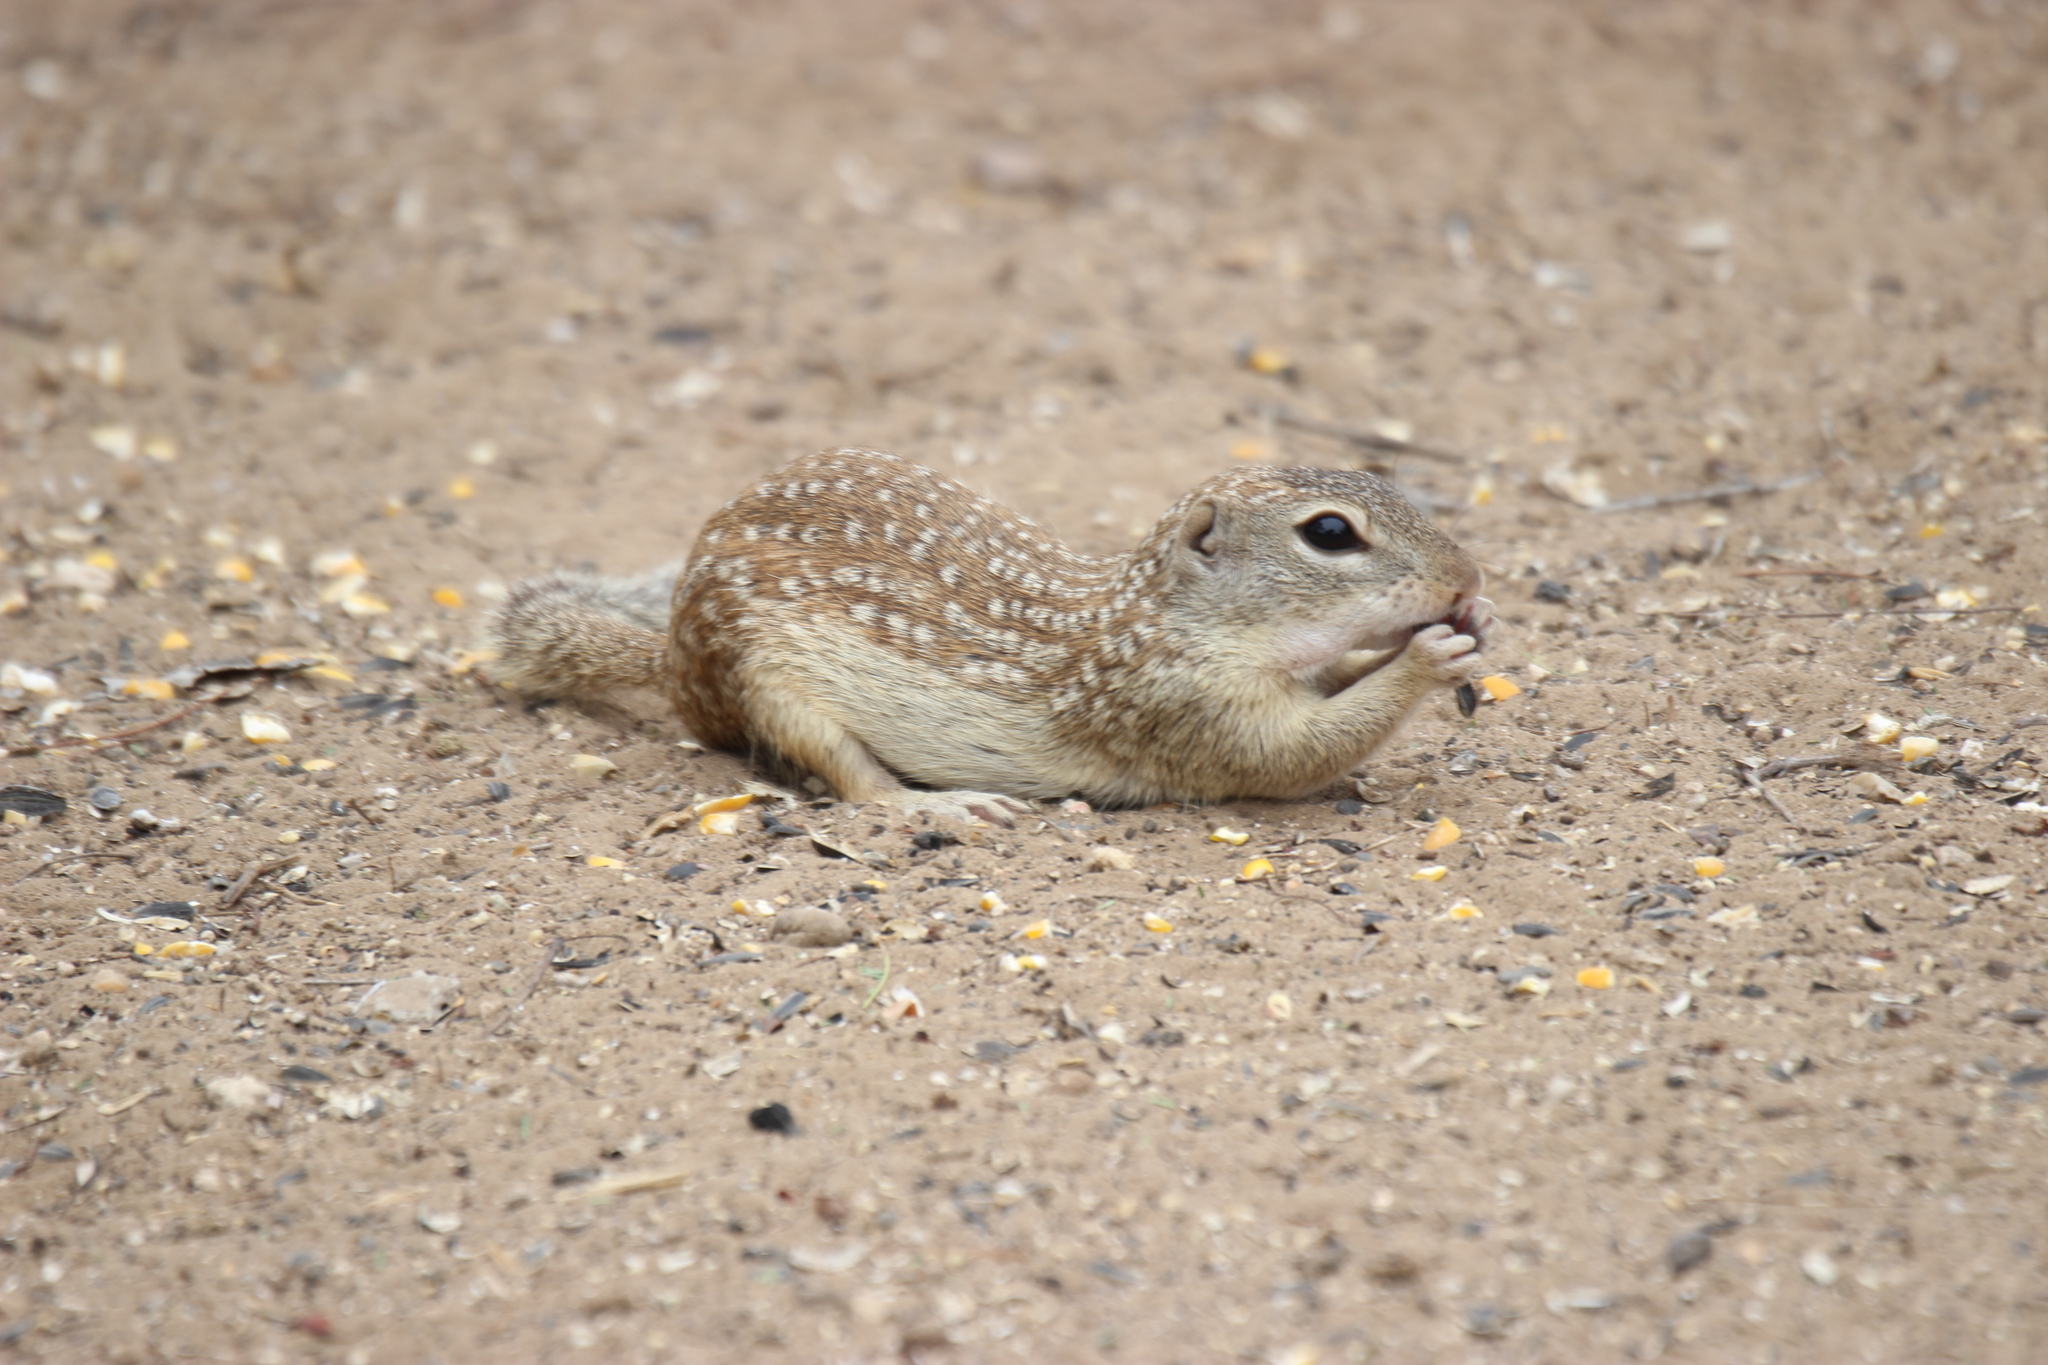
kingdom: Animalia
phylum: Chordata
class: Mammalia
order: Rodentia
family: Sciuridae
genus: Ictidomys
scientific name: Ictidomys parvidens
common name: Rio grande ground squirrel
